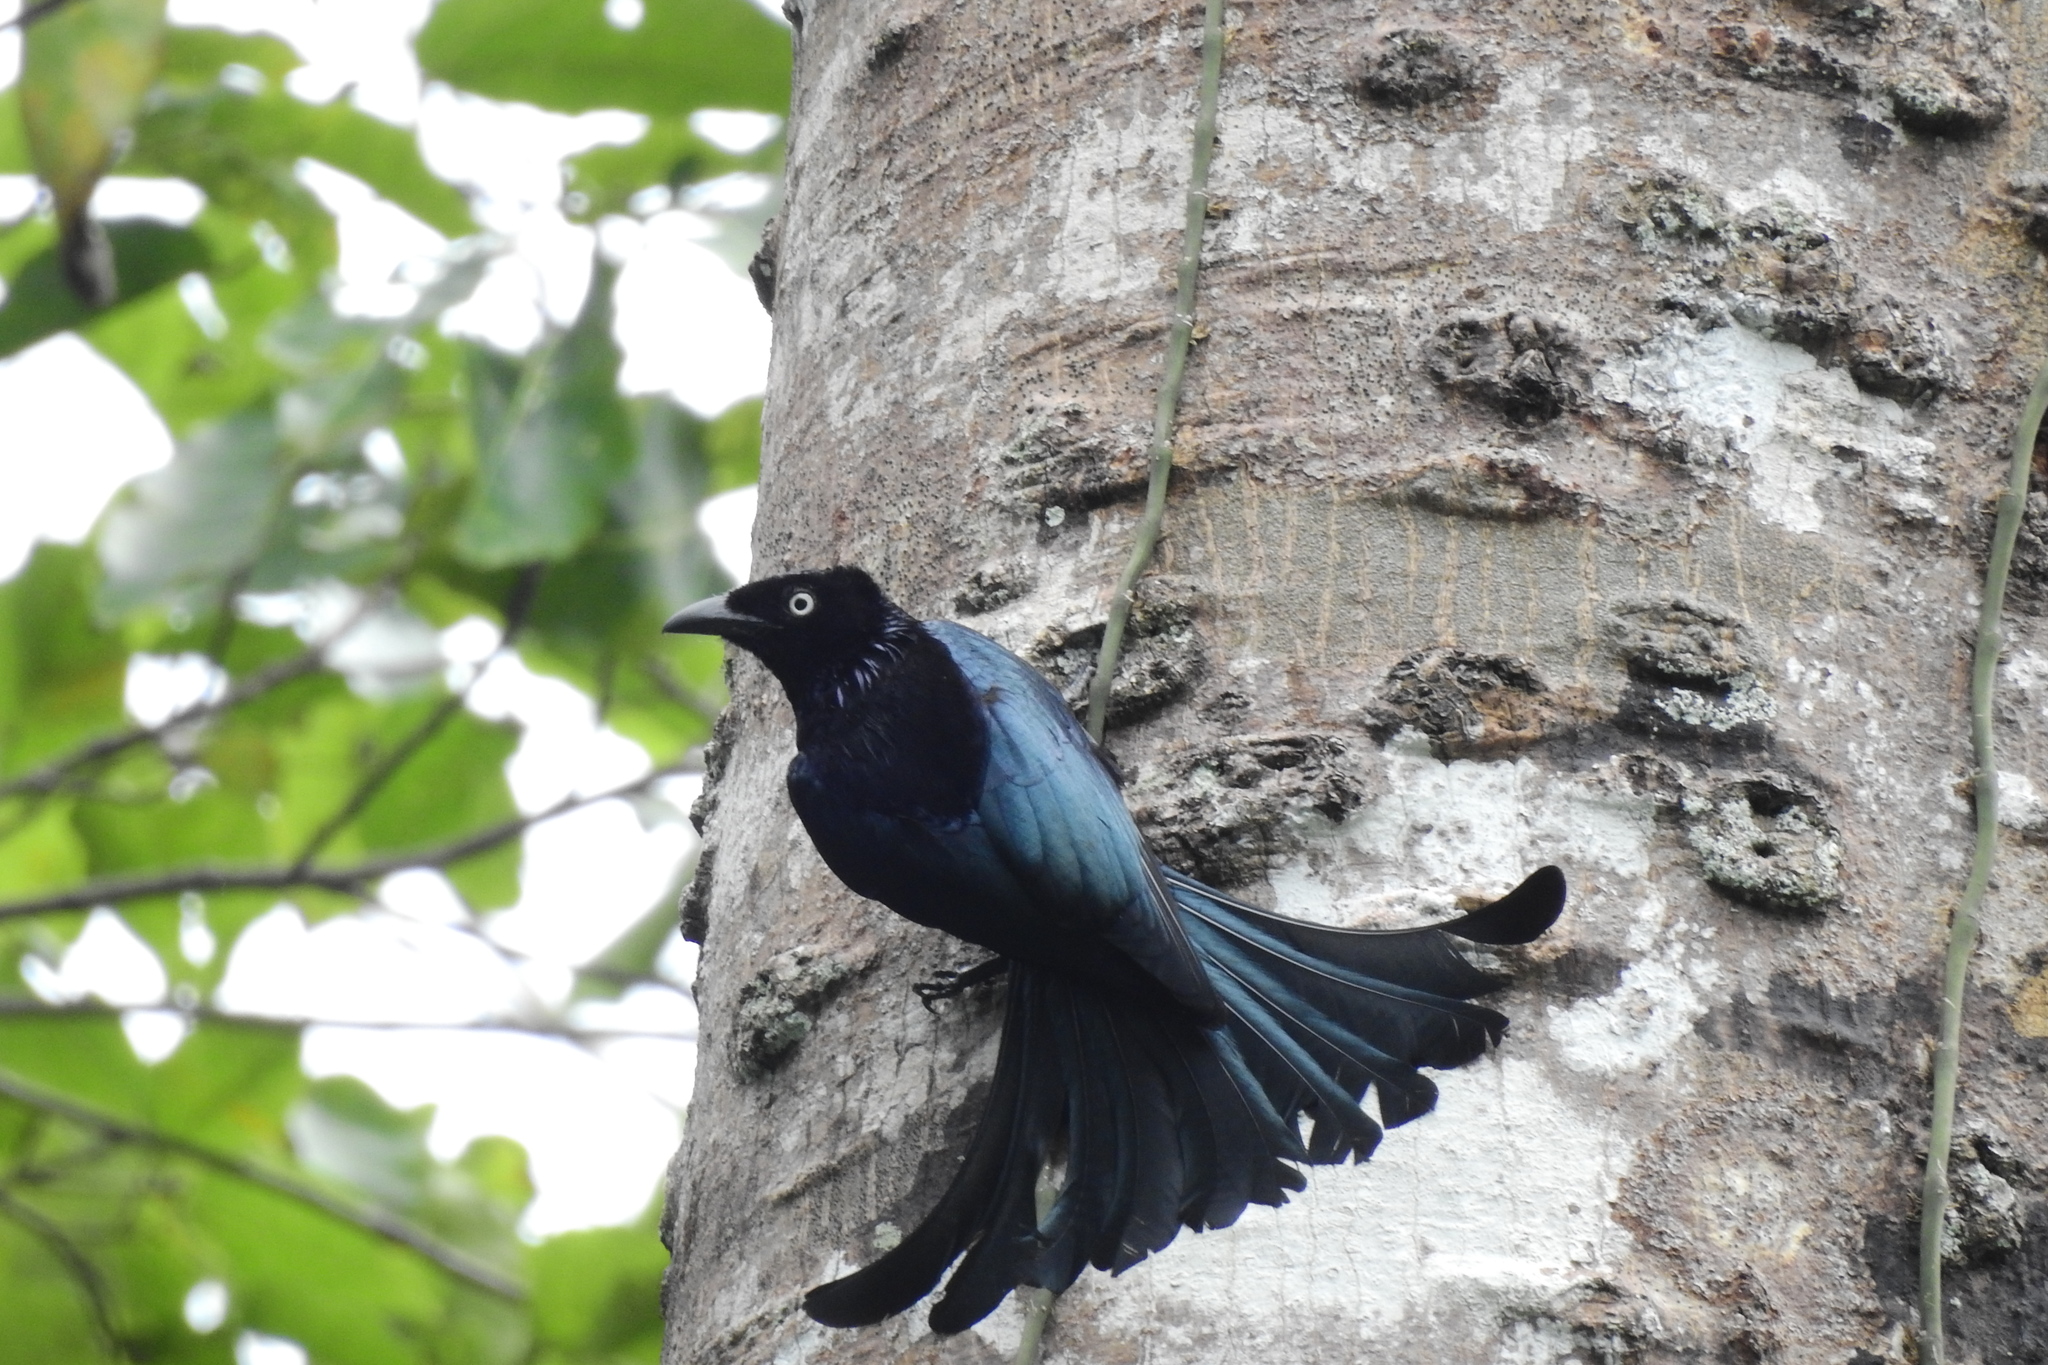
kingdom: Animalia
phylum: Chordata
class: Aves
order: Passeriformes
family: Dicruridae
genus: Dicrurus
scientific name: Dicrurus hottentottus
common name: Hair-crested drongo
